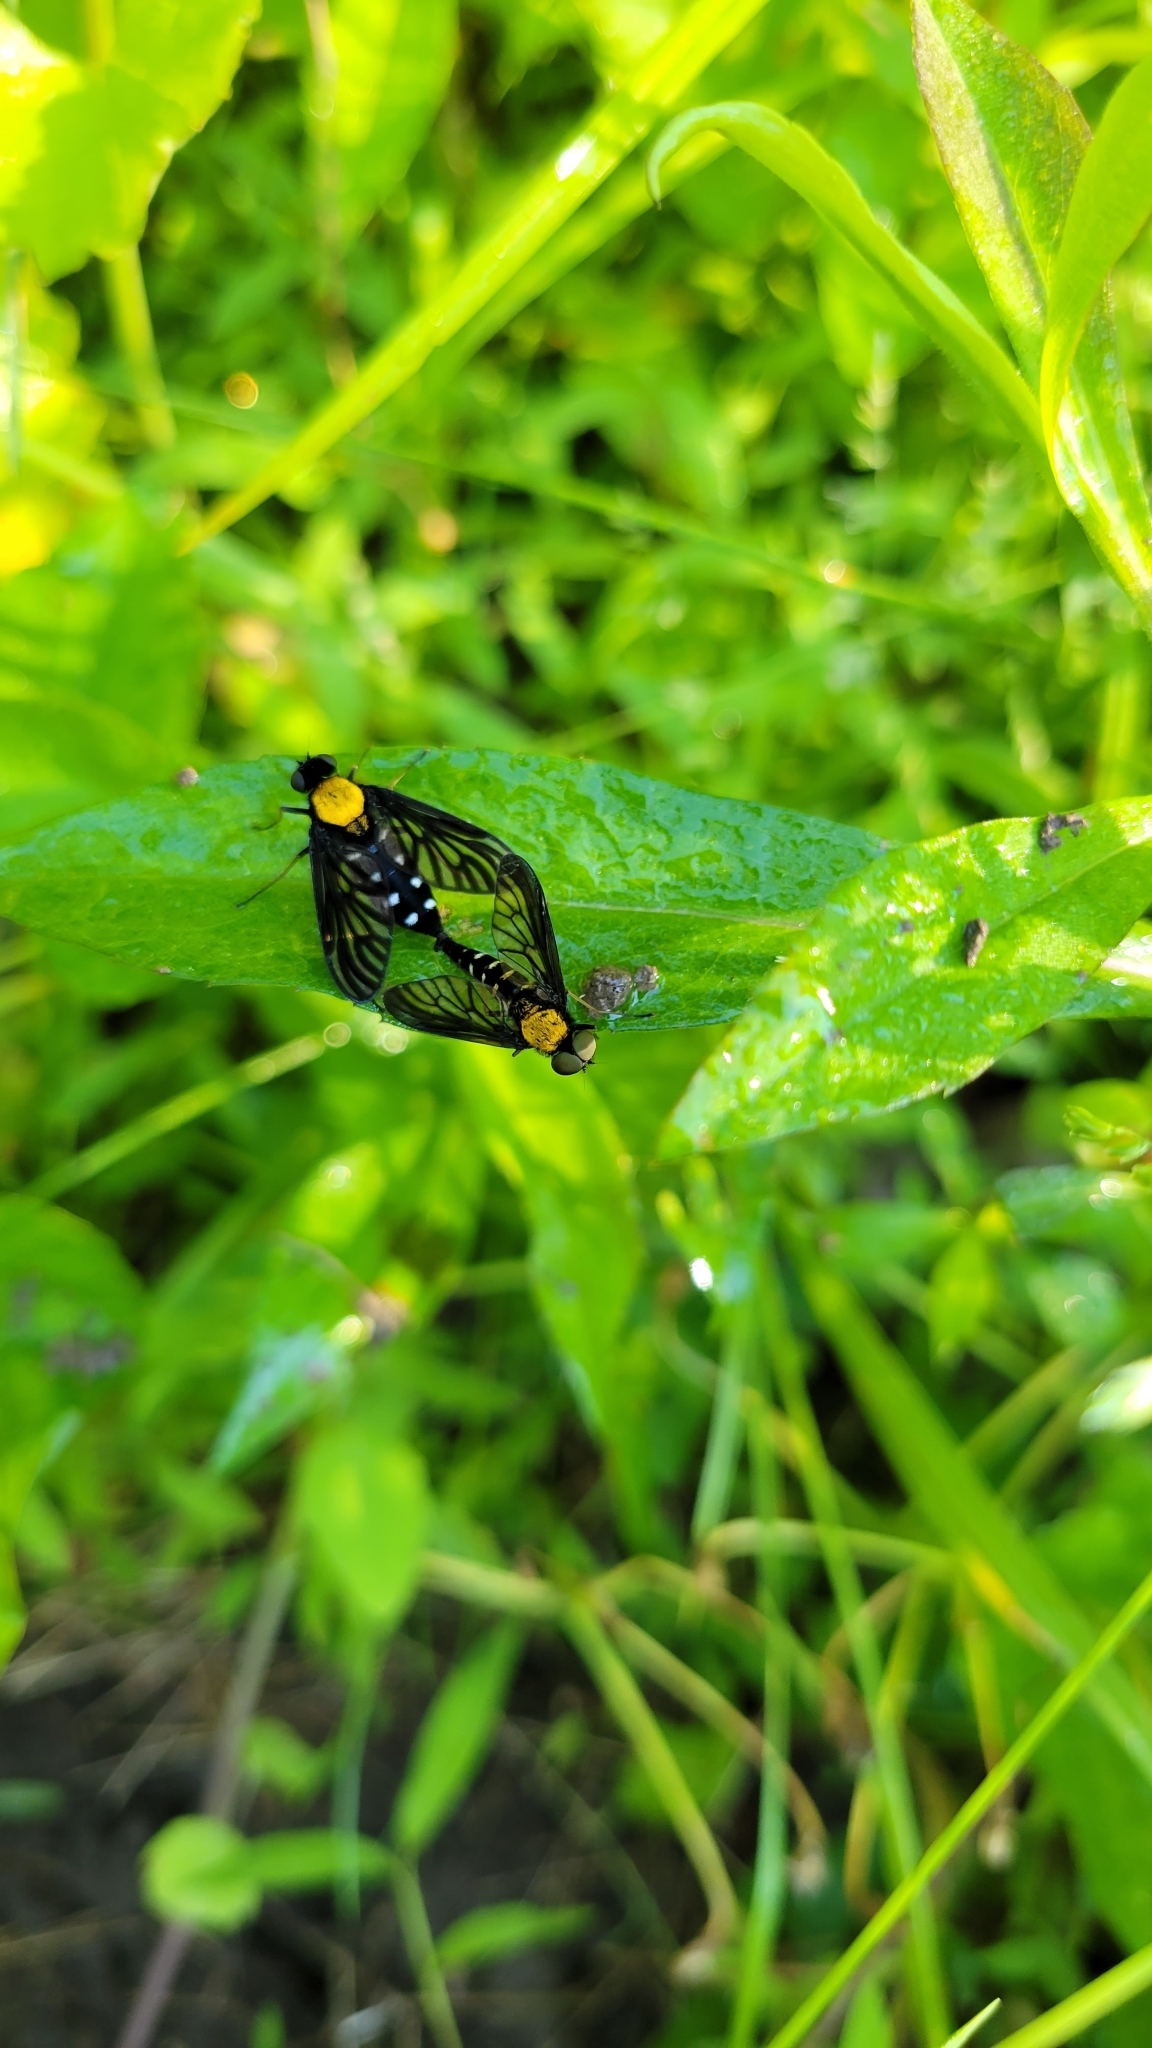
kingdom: Animalia
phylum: Arthropoda
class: Insecta
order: Diptera
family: Rhagionidae
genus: Chrysopilus
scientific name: Chrysopilus thoracicus
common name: Golden-backed snipe fly
